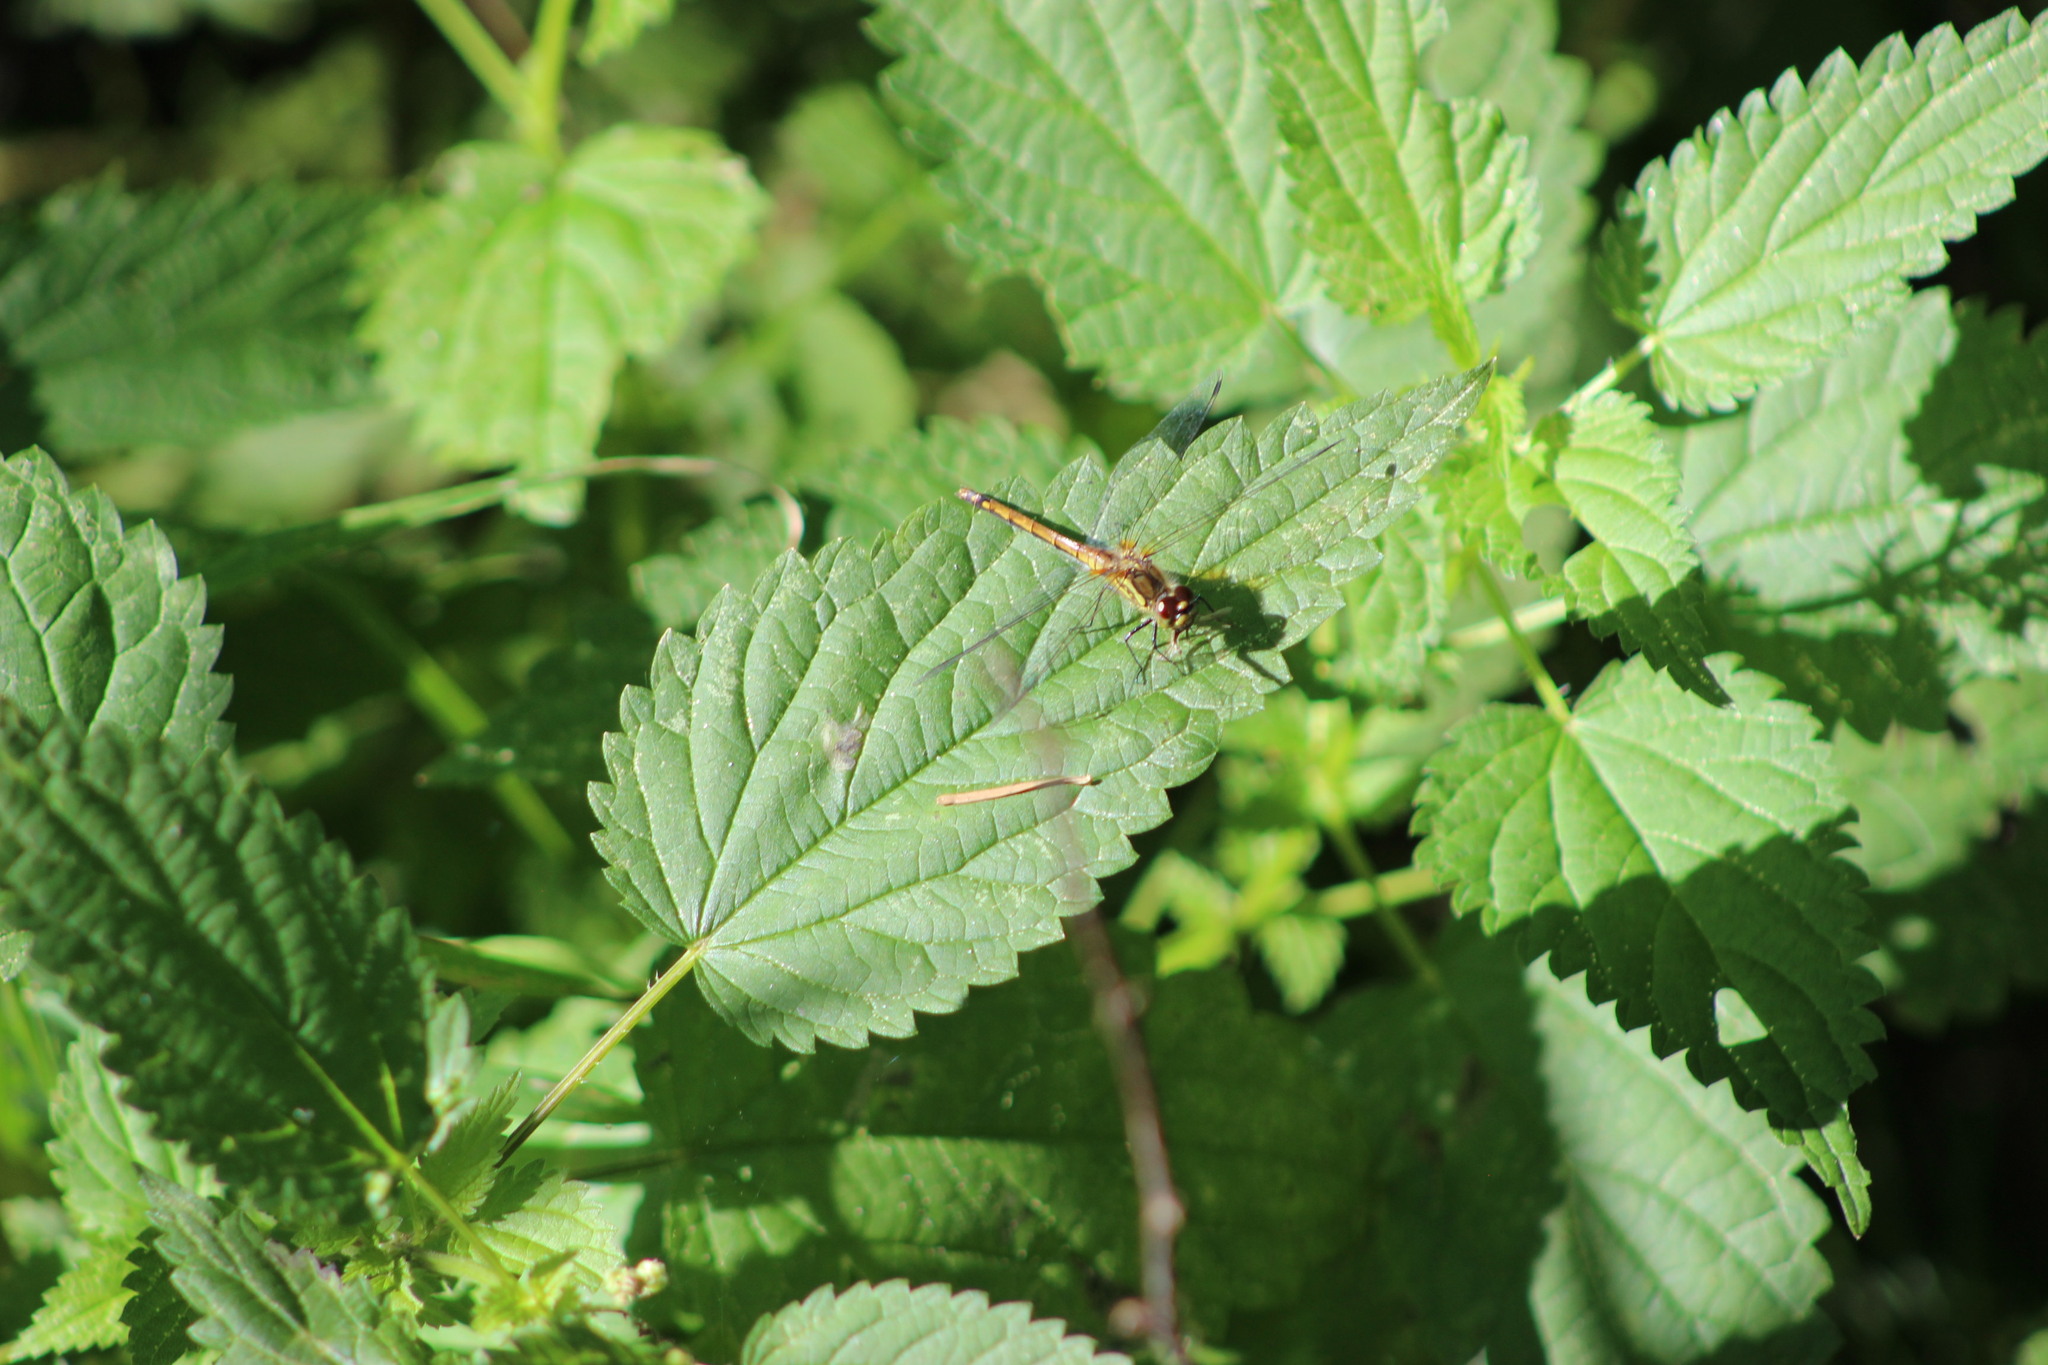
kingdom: Animalia
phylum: Arthropoda
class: Insecta
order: Odonata
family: Libellulidae
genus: Sympetrum
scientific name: Sympetrum danae
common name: Black darter
